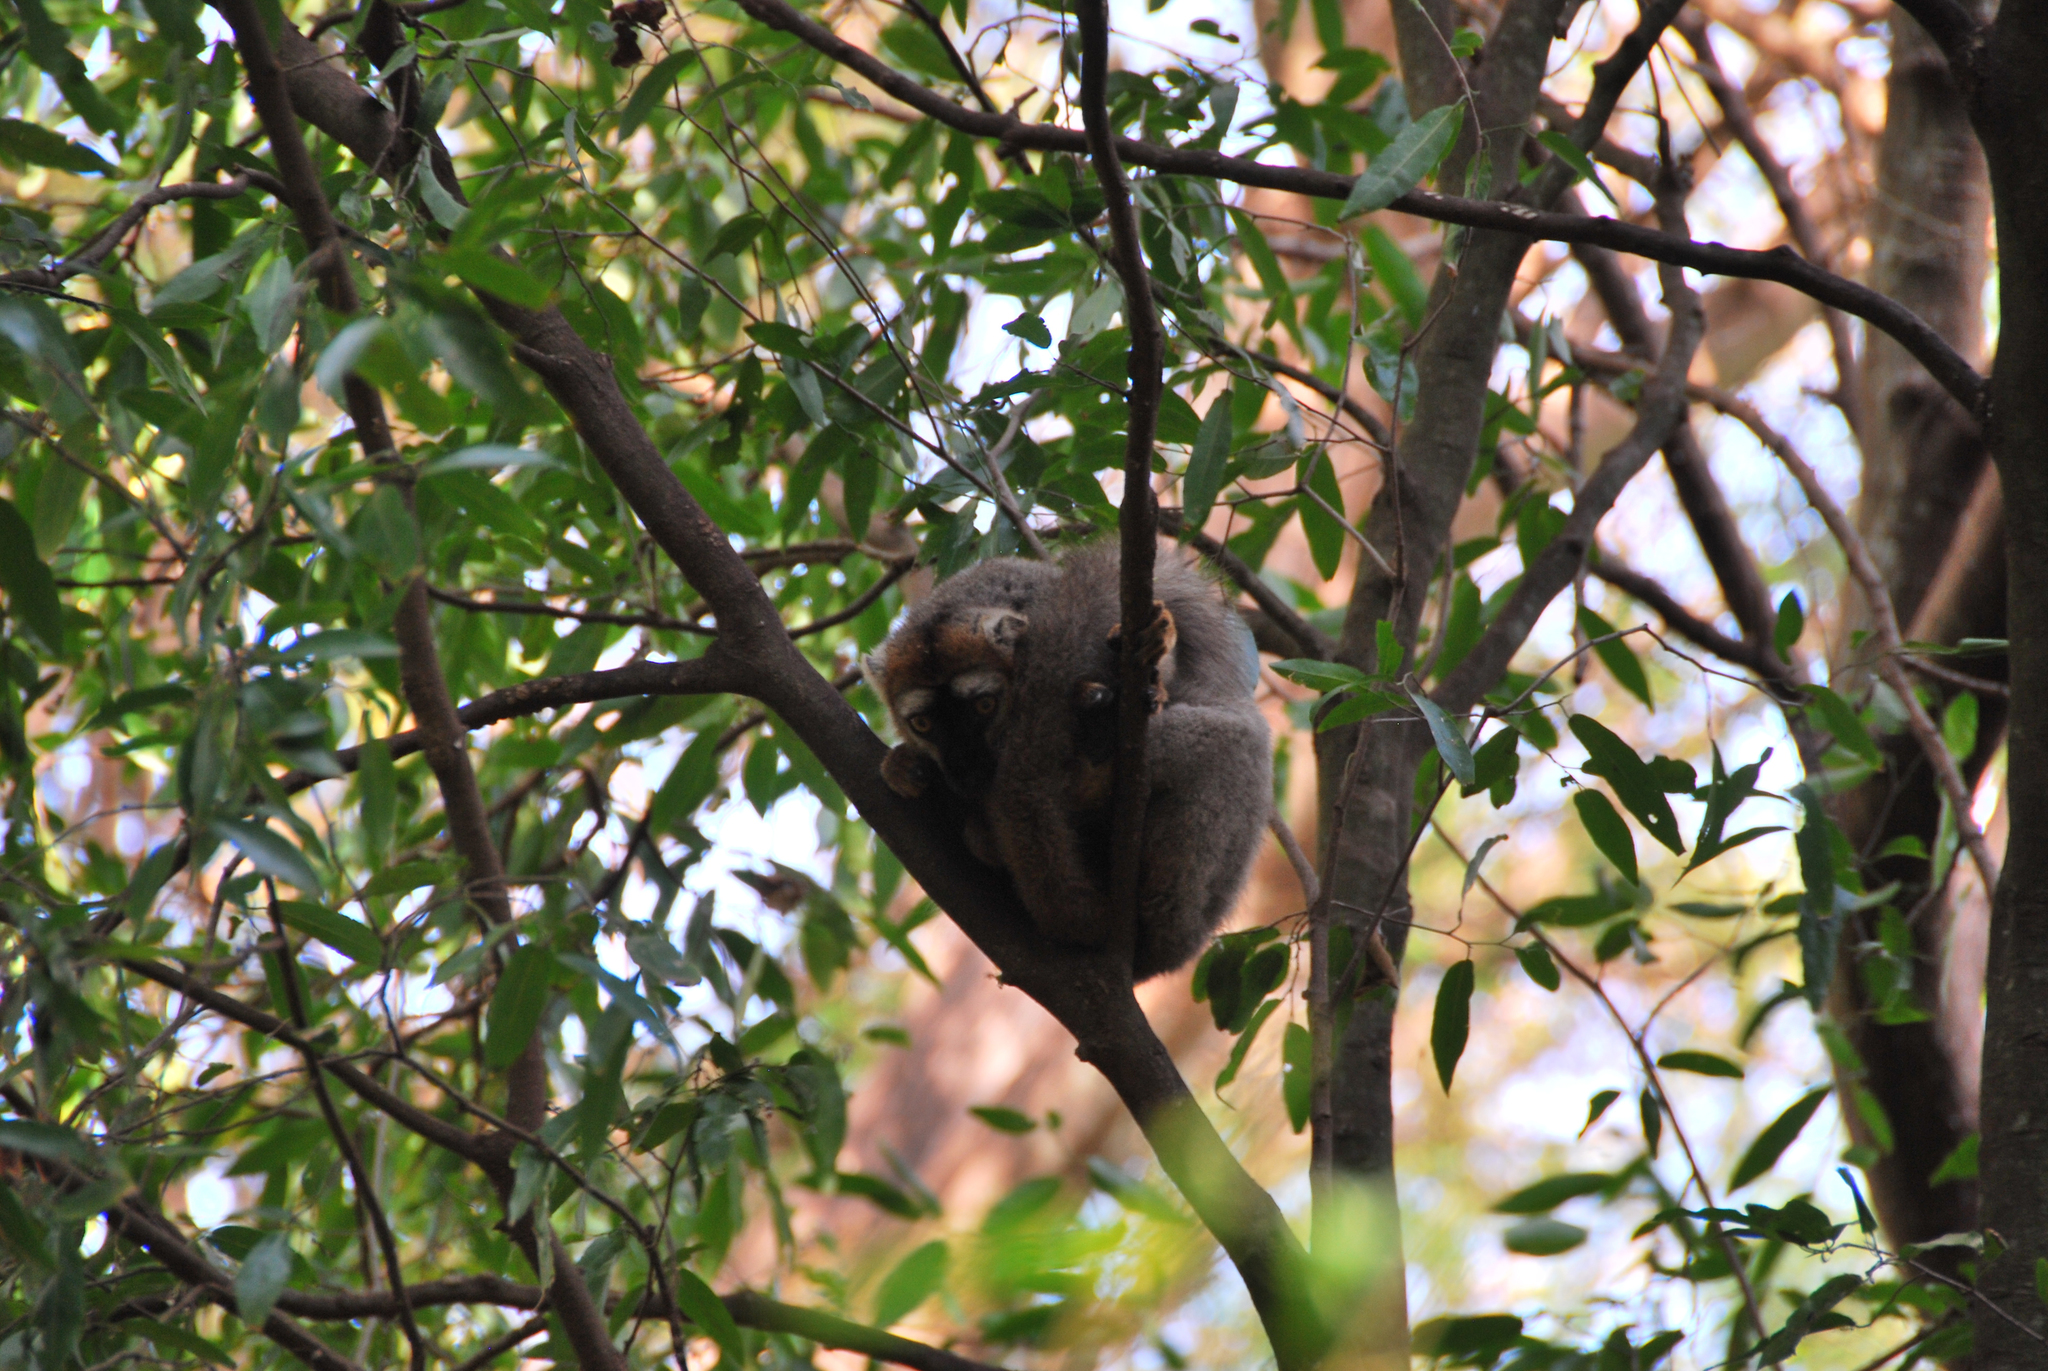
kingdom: Animalia
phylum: Chordata
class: Mammalia
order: Primates
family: Lemuridae
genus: Eulemur
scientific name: Eulemur
